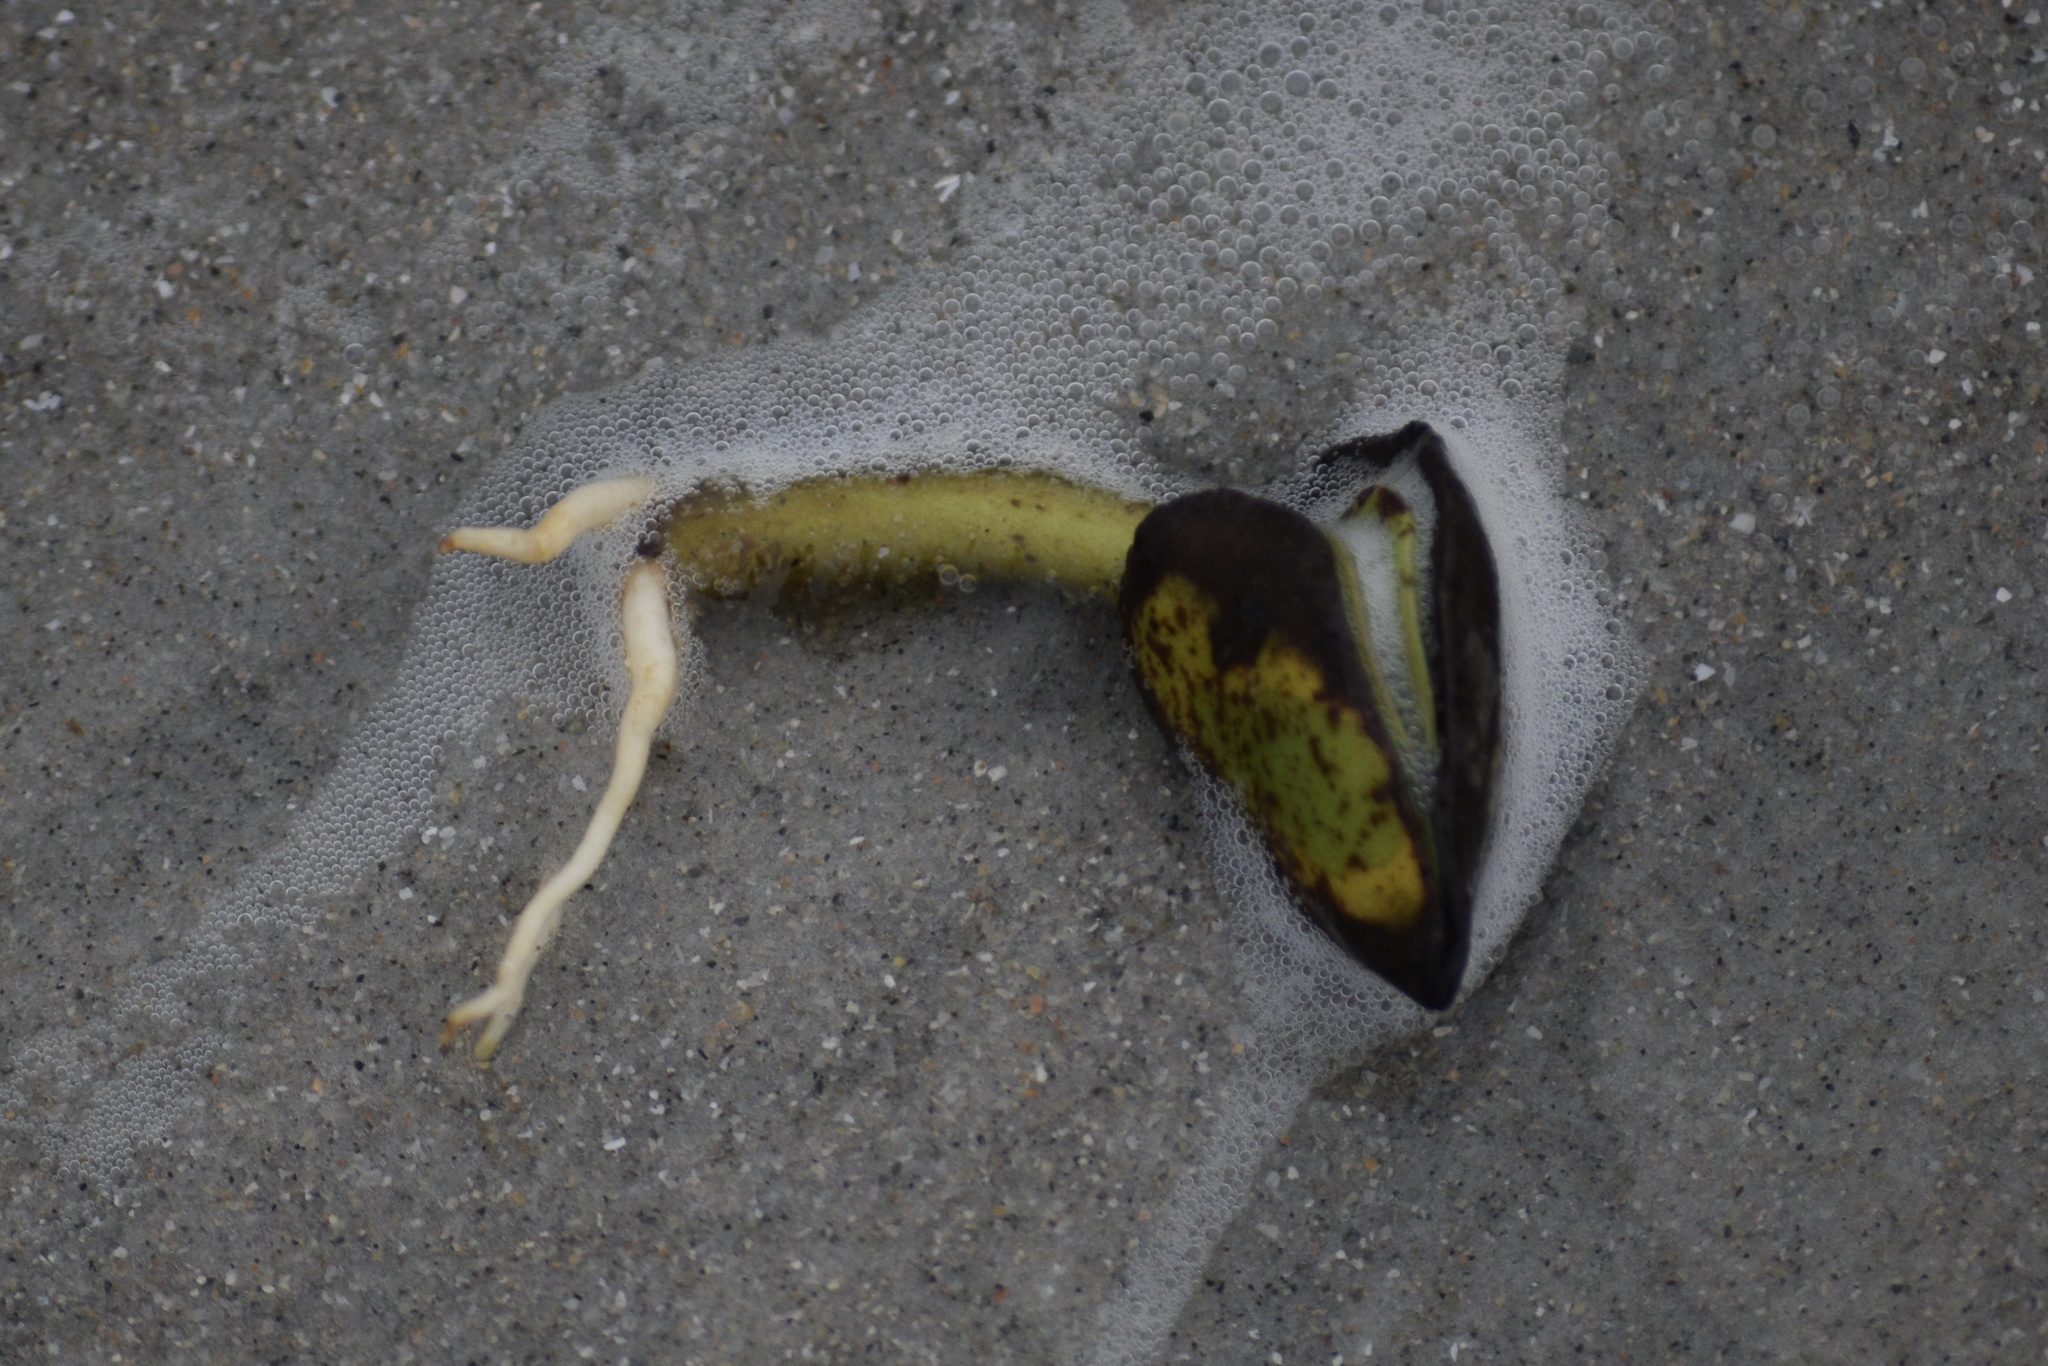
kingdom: Plantae
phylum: Tracheophyta
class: Magnoliopsida
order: Lamiales
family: Acanthaceae
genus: Avicennia
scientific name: Avicennia germinans
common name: Black mangrove
